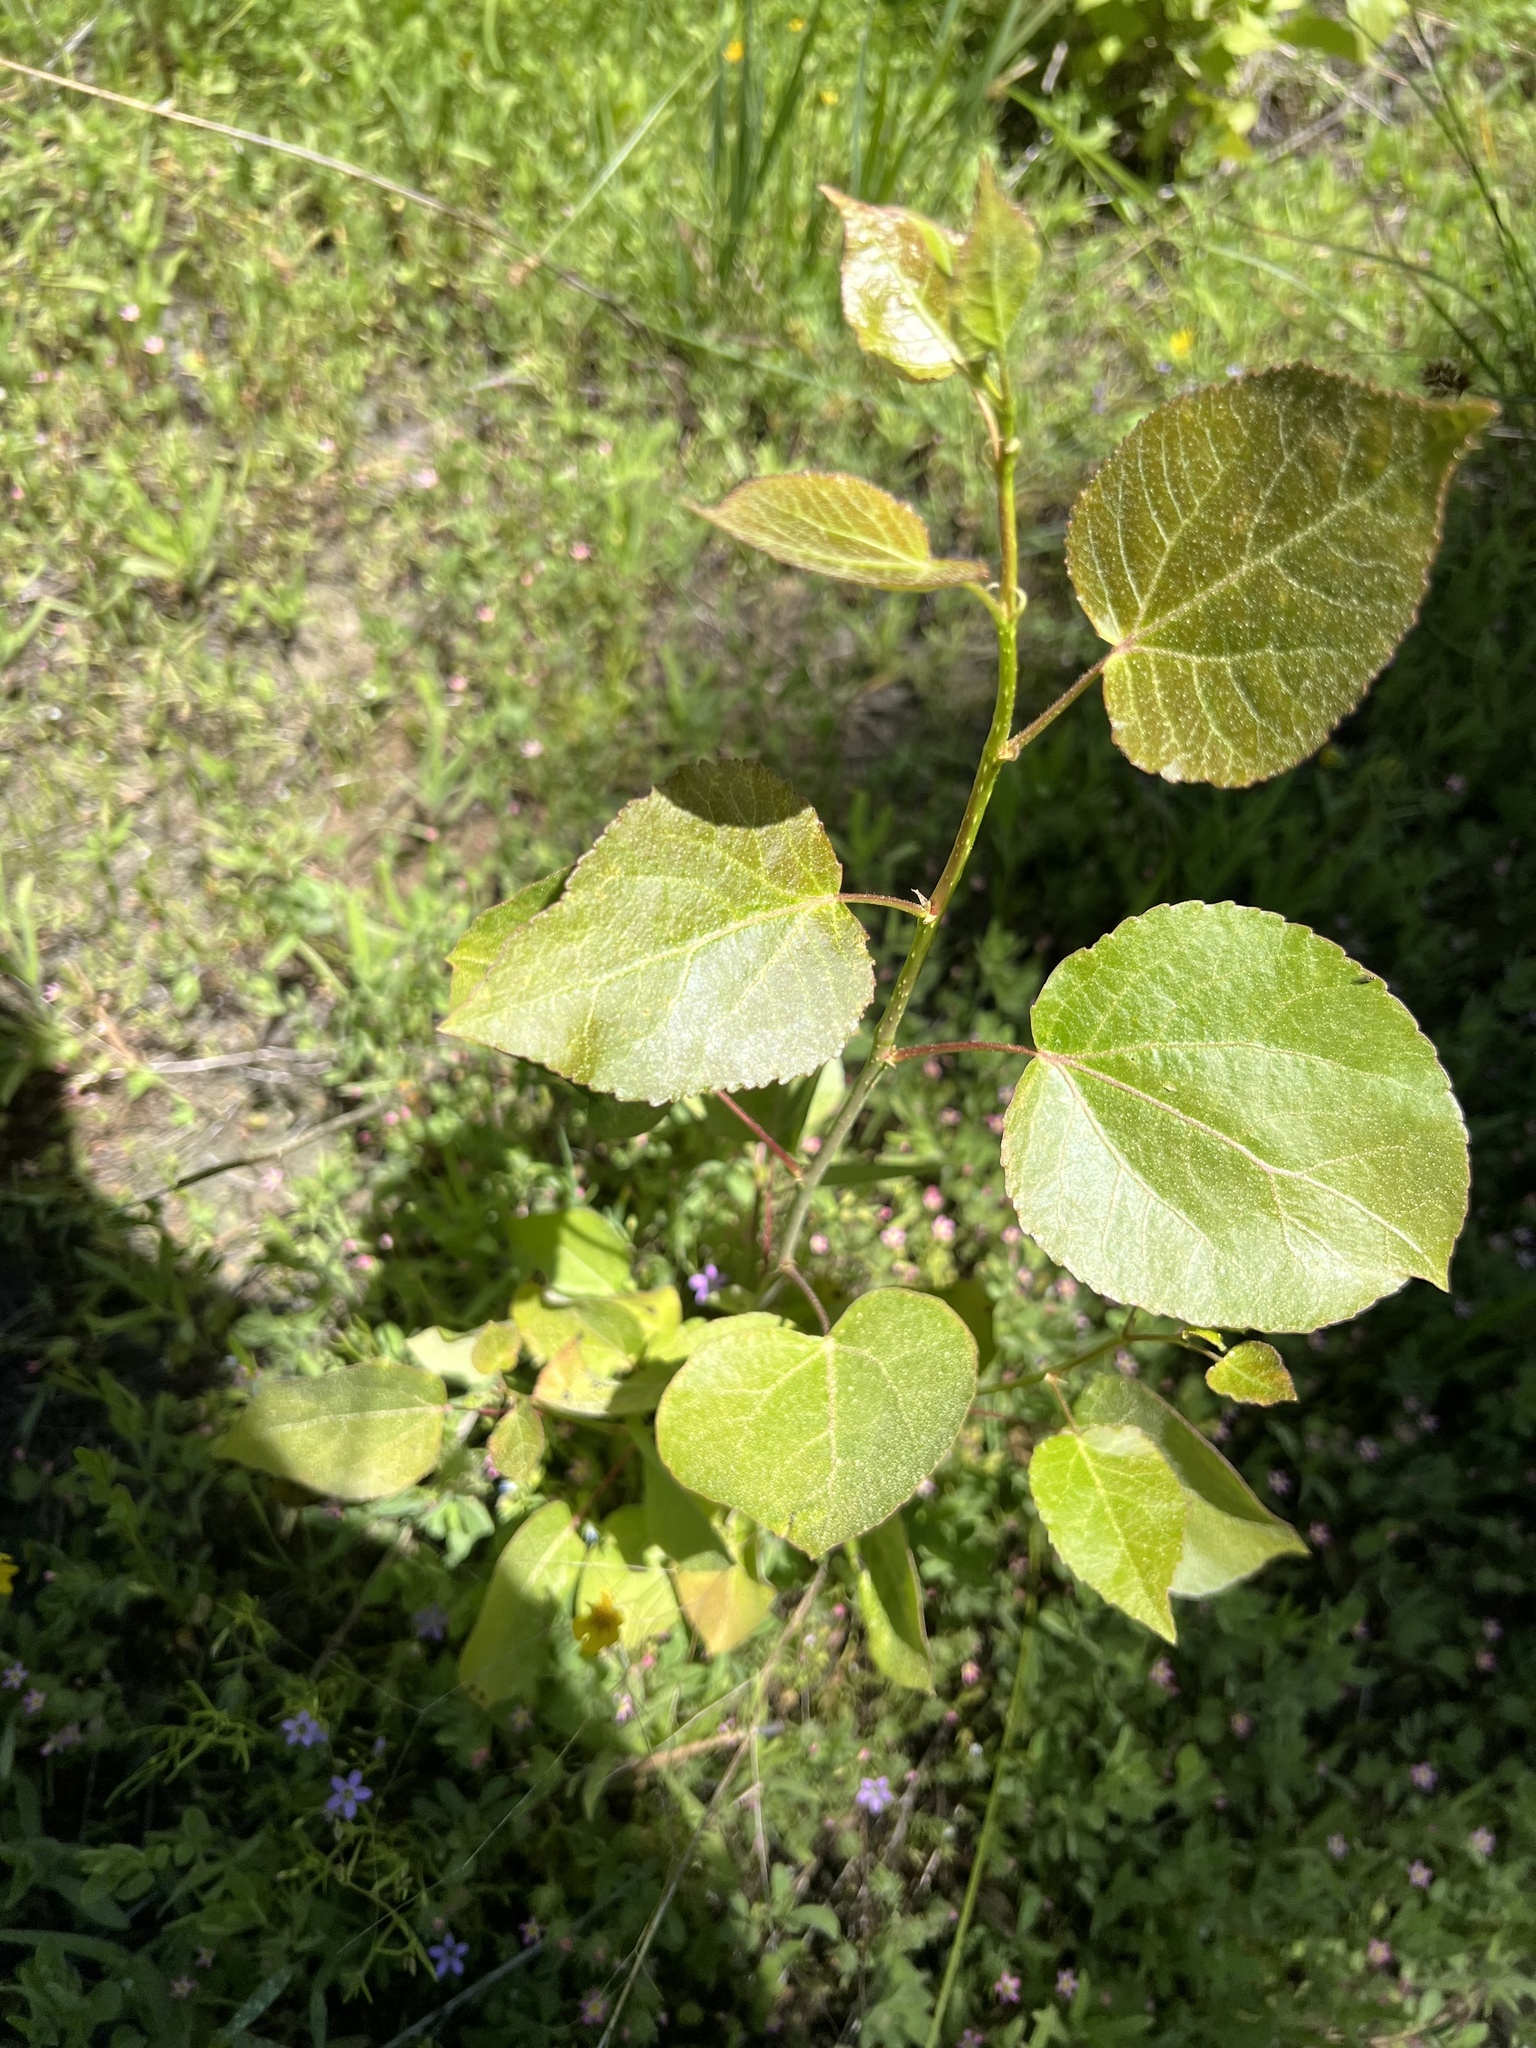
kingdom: Plantae
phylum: Tracheophyta
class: Magnoliopsida
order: Malpighiales
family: Salicaceae
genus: Populus
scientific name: Populus tremuloides
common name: Quaking aspen
